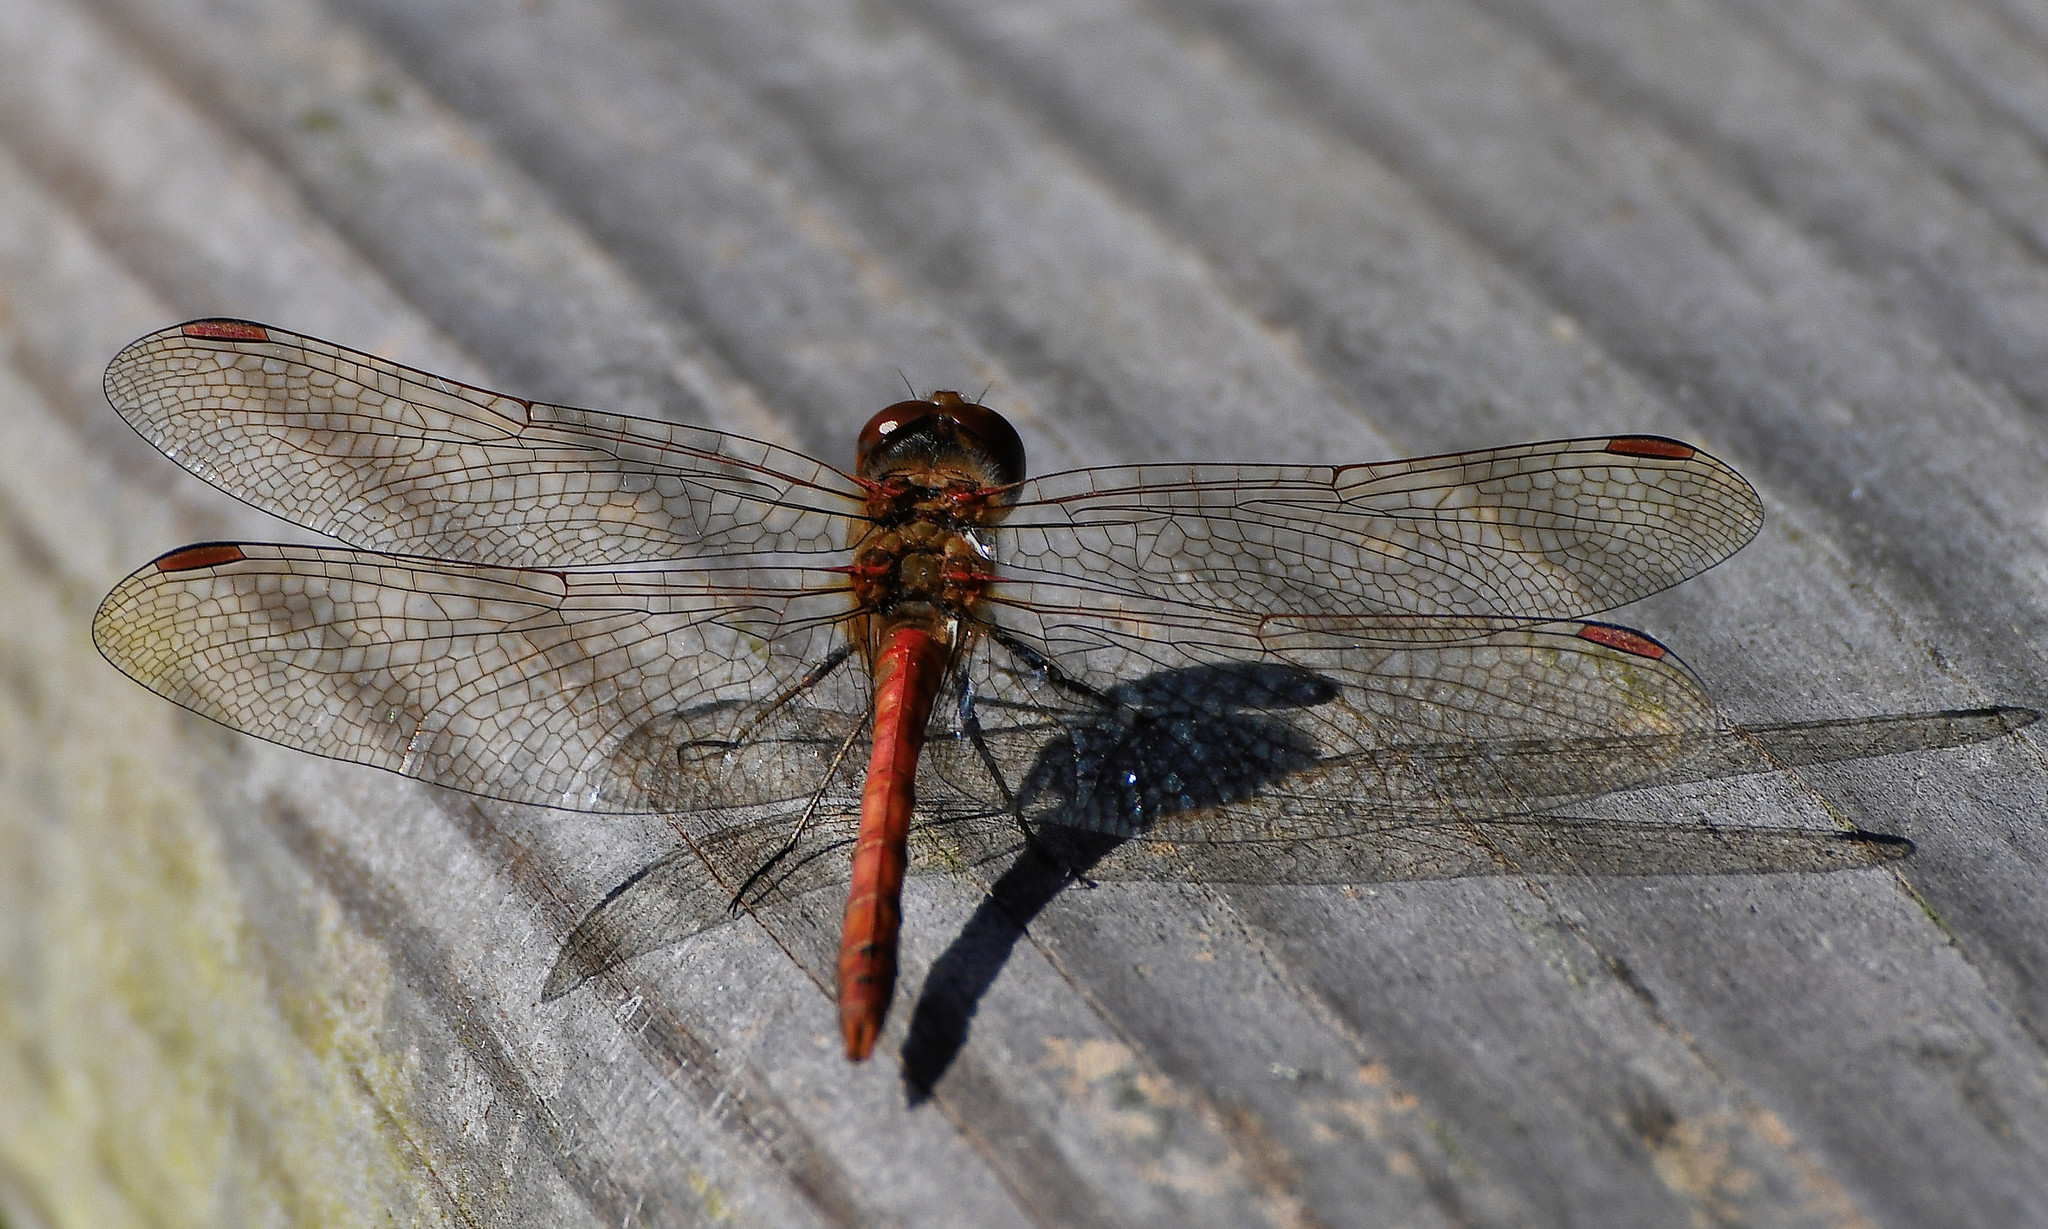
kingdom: Animalia
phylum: Arthropoda
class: Insecta
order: Odonata
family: Libellulidae
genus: Sympetrum
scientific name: Sympetrum striolatum
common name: Common darter
